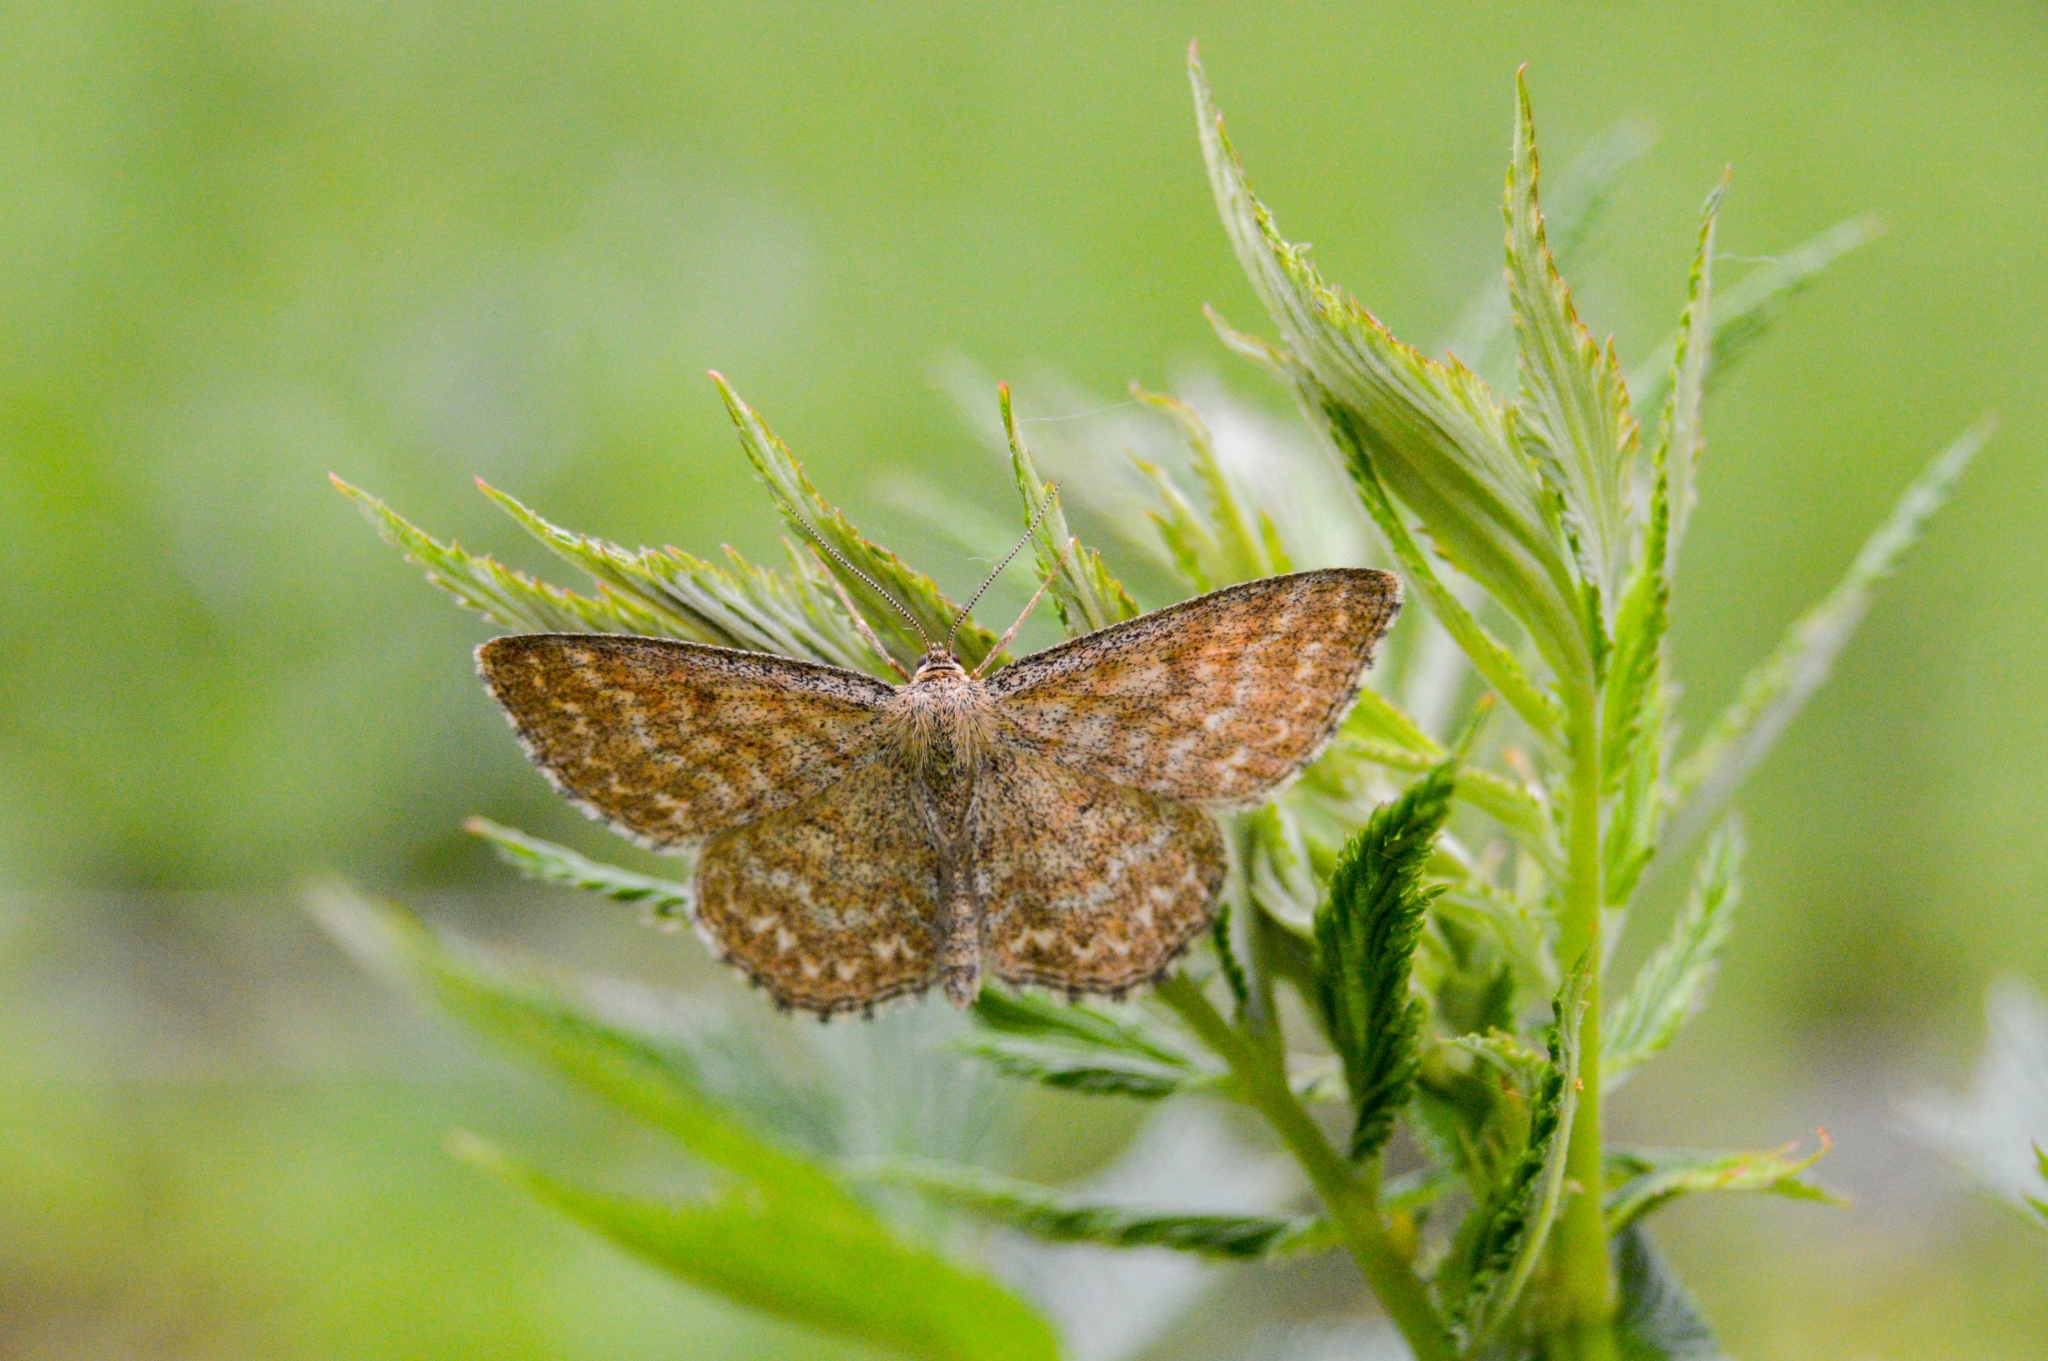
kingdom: Animalia
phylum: Arthropoda
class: Insecta
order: Lepidoptera
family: Geometridae
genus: Scopula
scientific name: Scopula immorata
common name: Lewes wave
